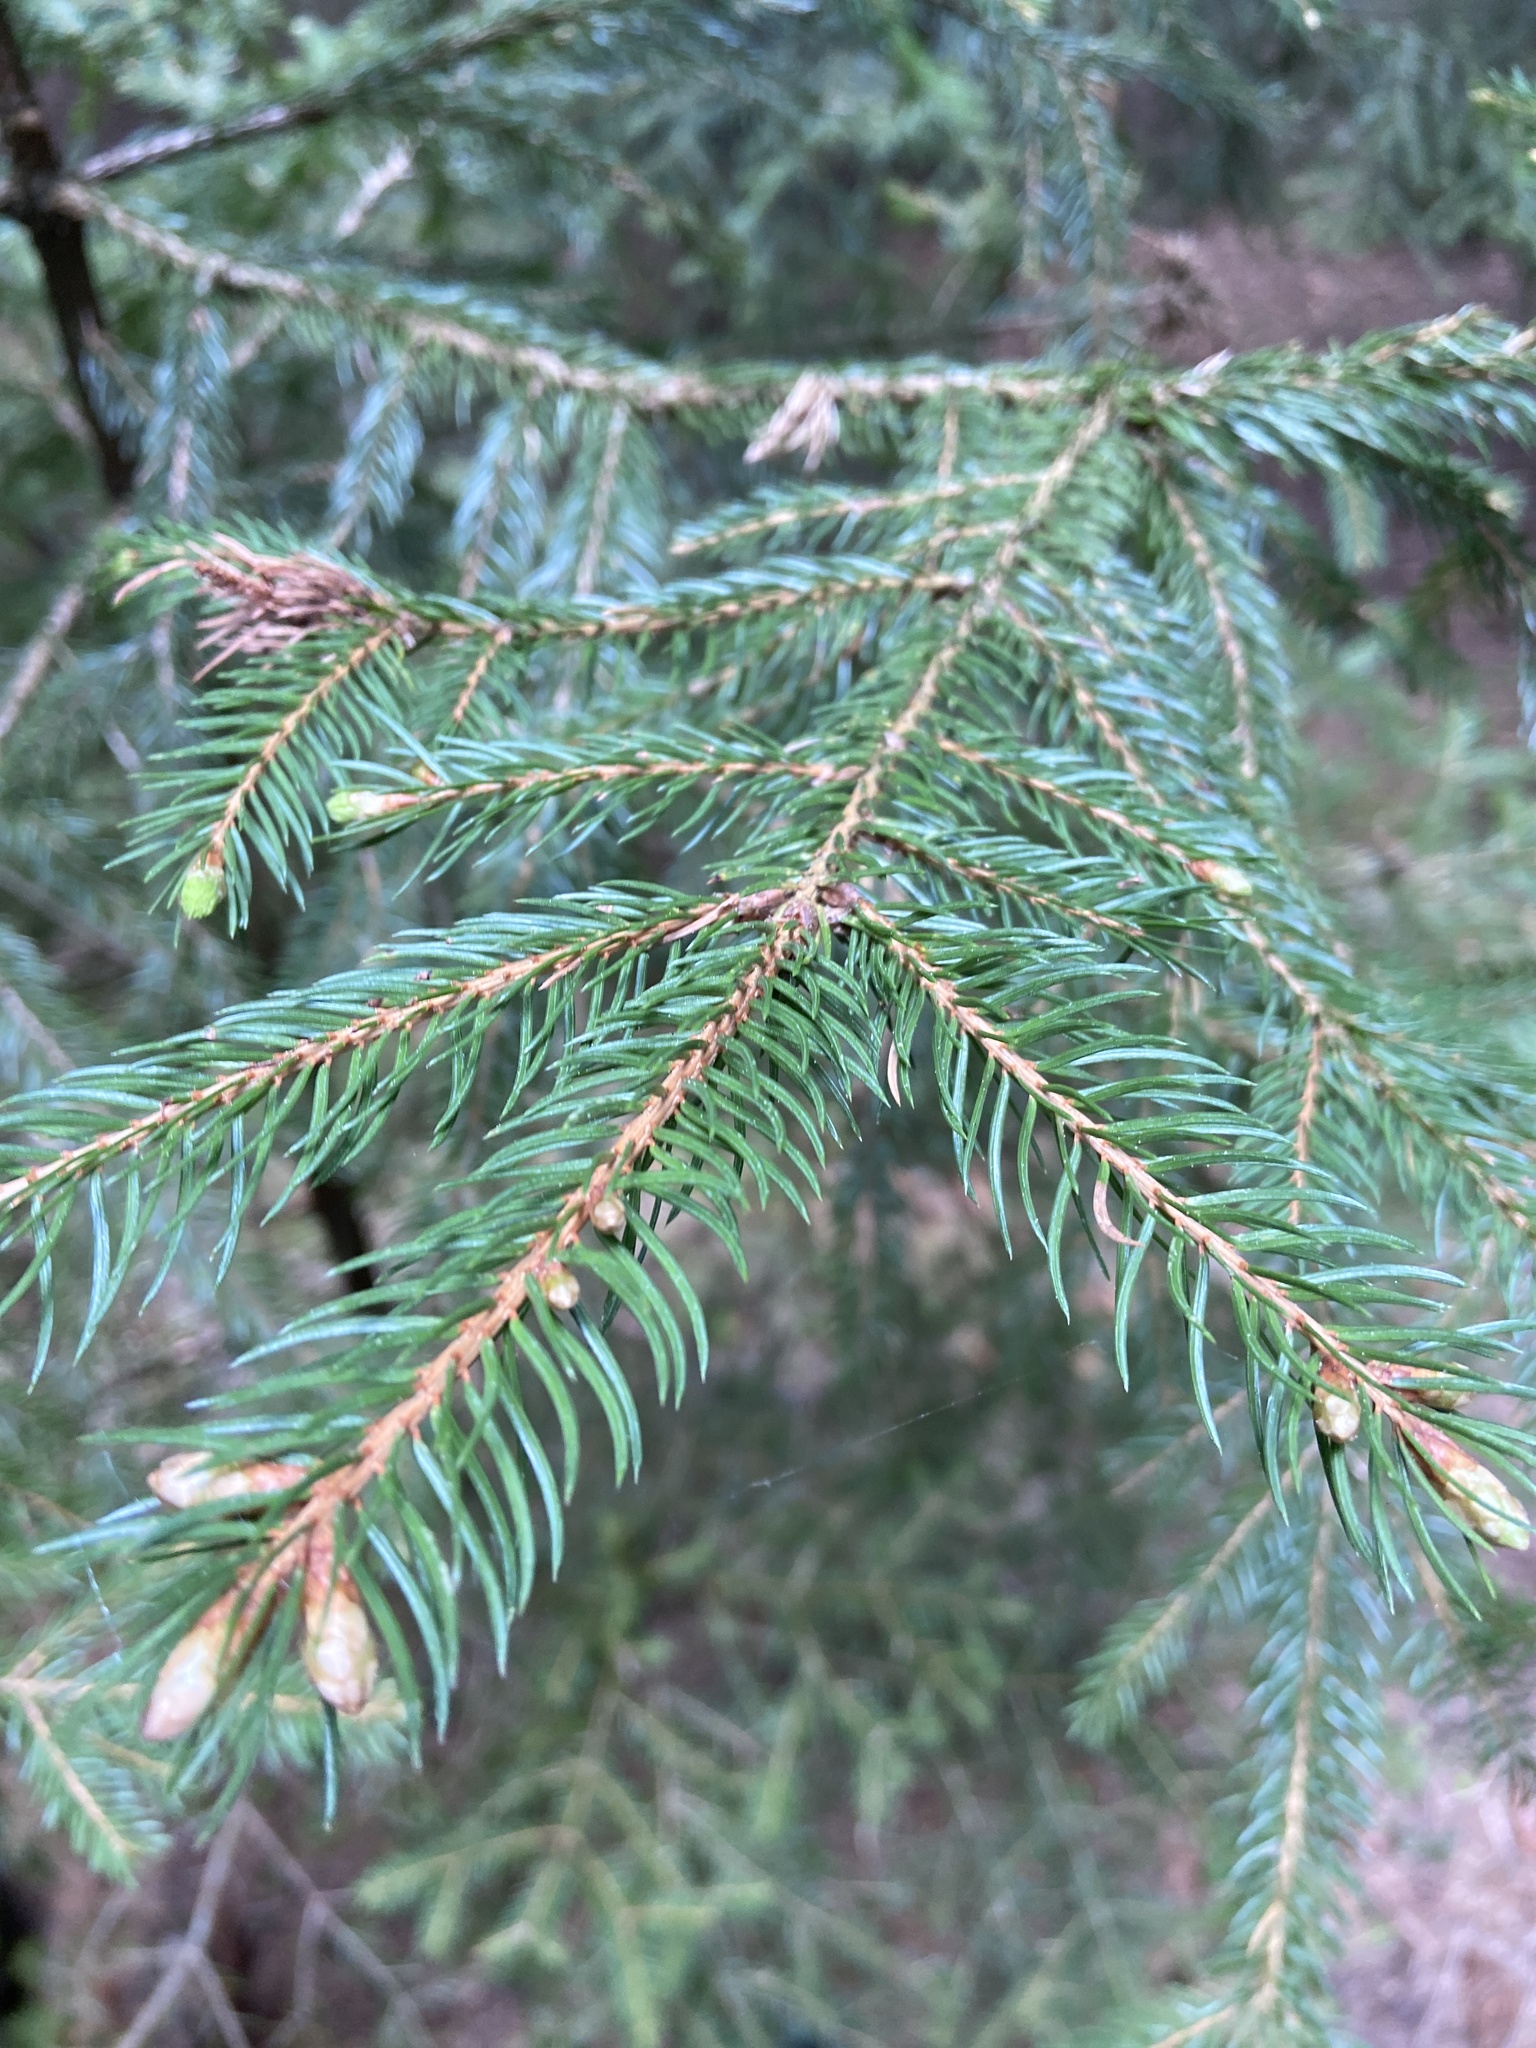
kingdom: Plantae
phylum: Tracheophyta
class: Pinopsida
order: Pinales
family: Pinaceae
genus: Picea
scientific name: Picea abies
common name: Norway spruce
